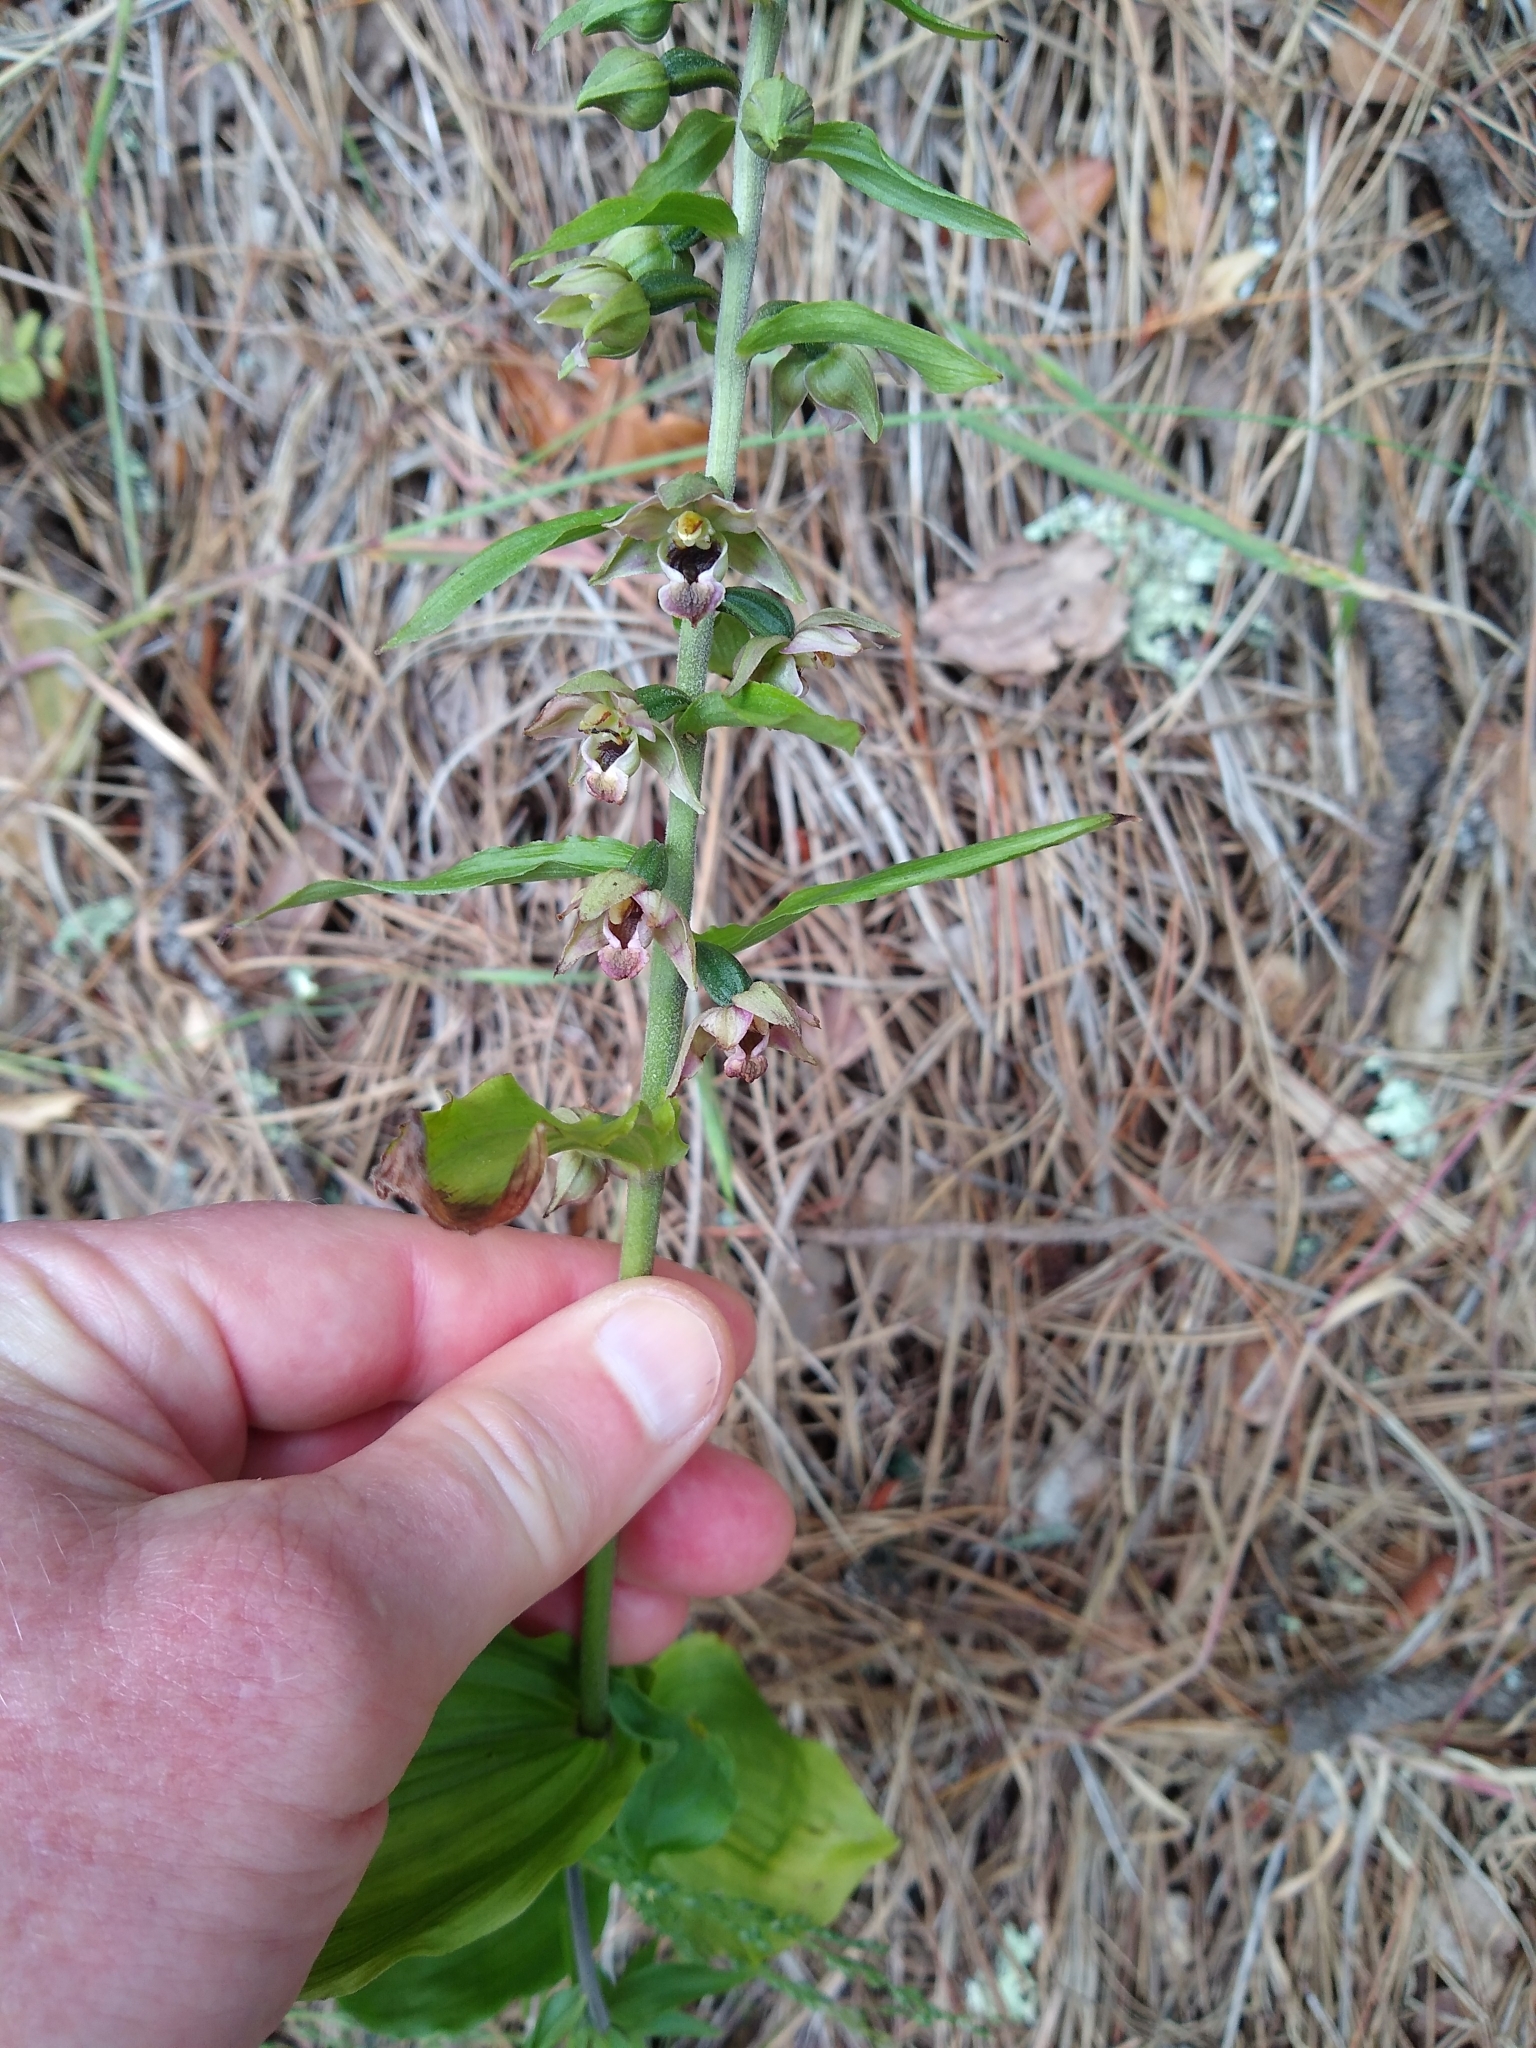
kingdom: Plantae
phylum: Tracheophyta
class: Liliopsida
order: Asparagales
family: Orchidaceae
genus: Epipactis
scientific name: Epipactis helleborine
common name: Broad-leaved helleborine
